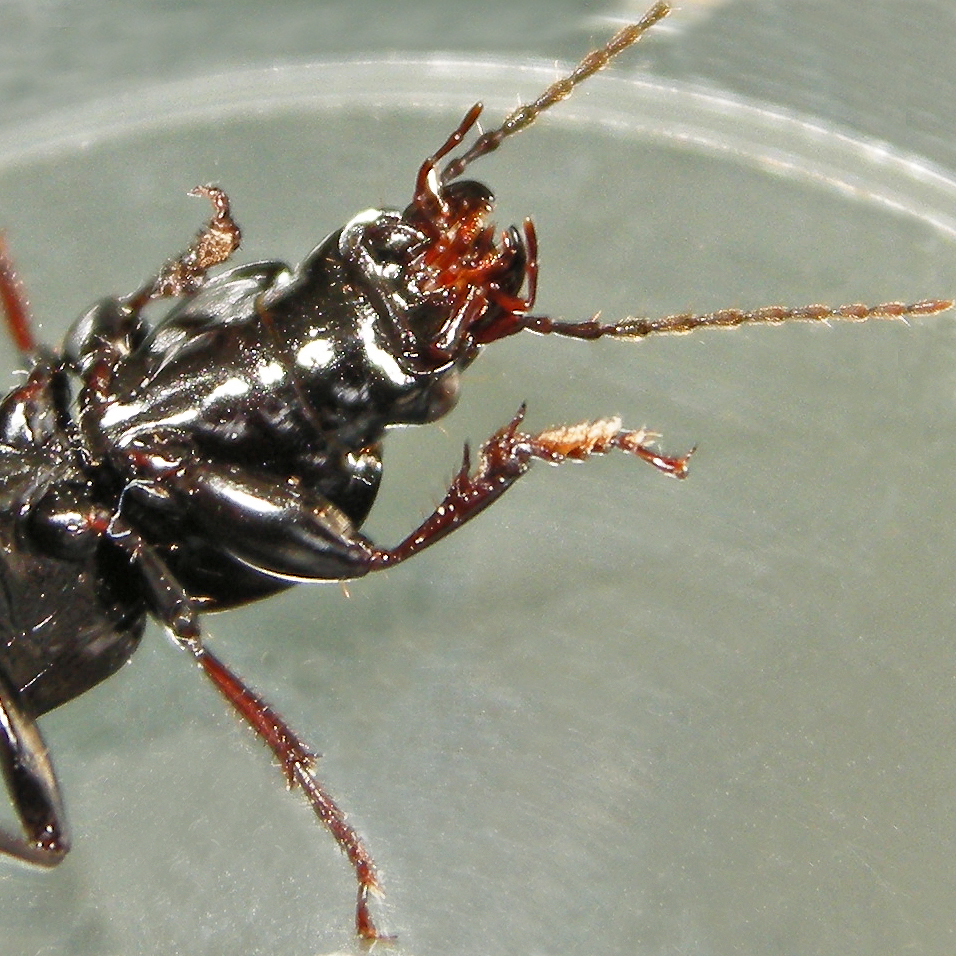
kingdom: Animalia
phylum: Arthropoda
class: Insecta
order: Coleoptera
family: Carabidae
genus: Pterostichus
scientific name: Pterostichus stygicus
